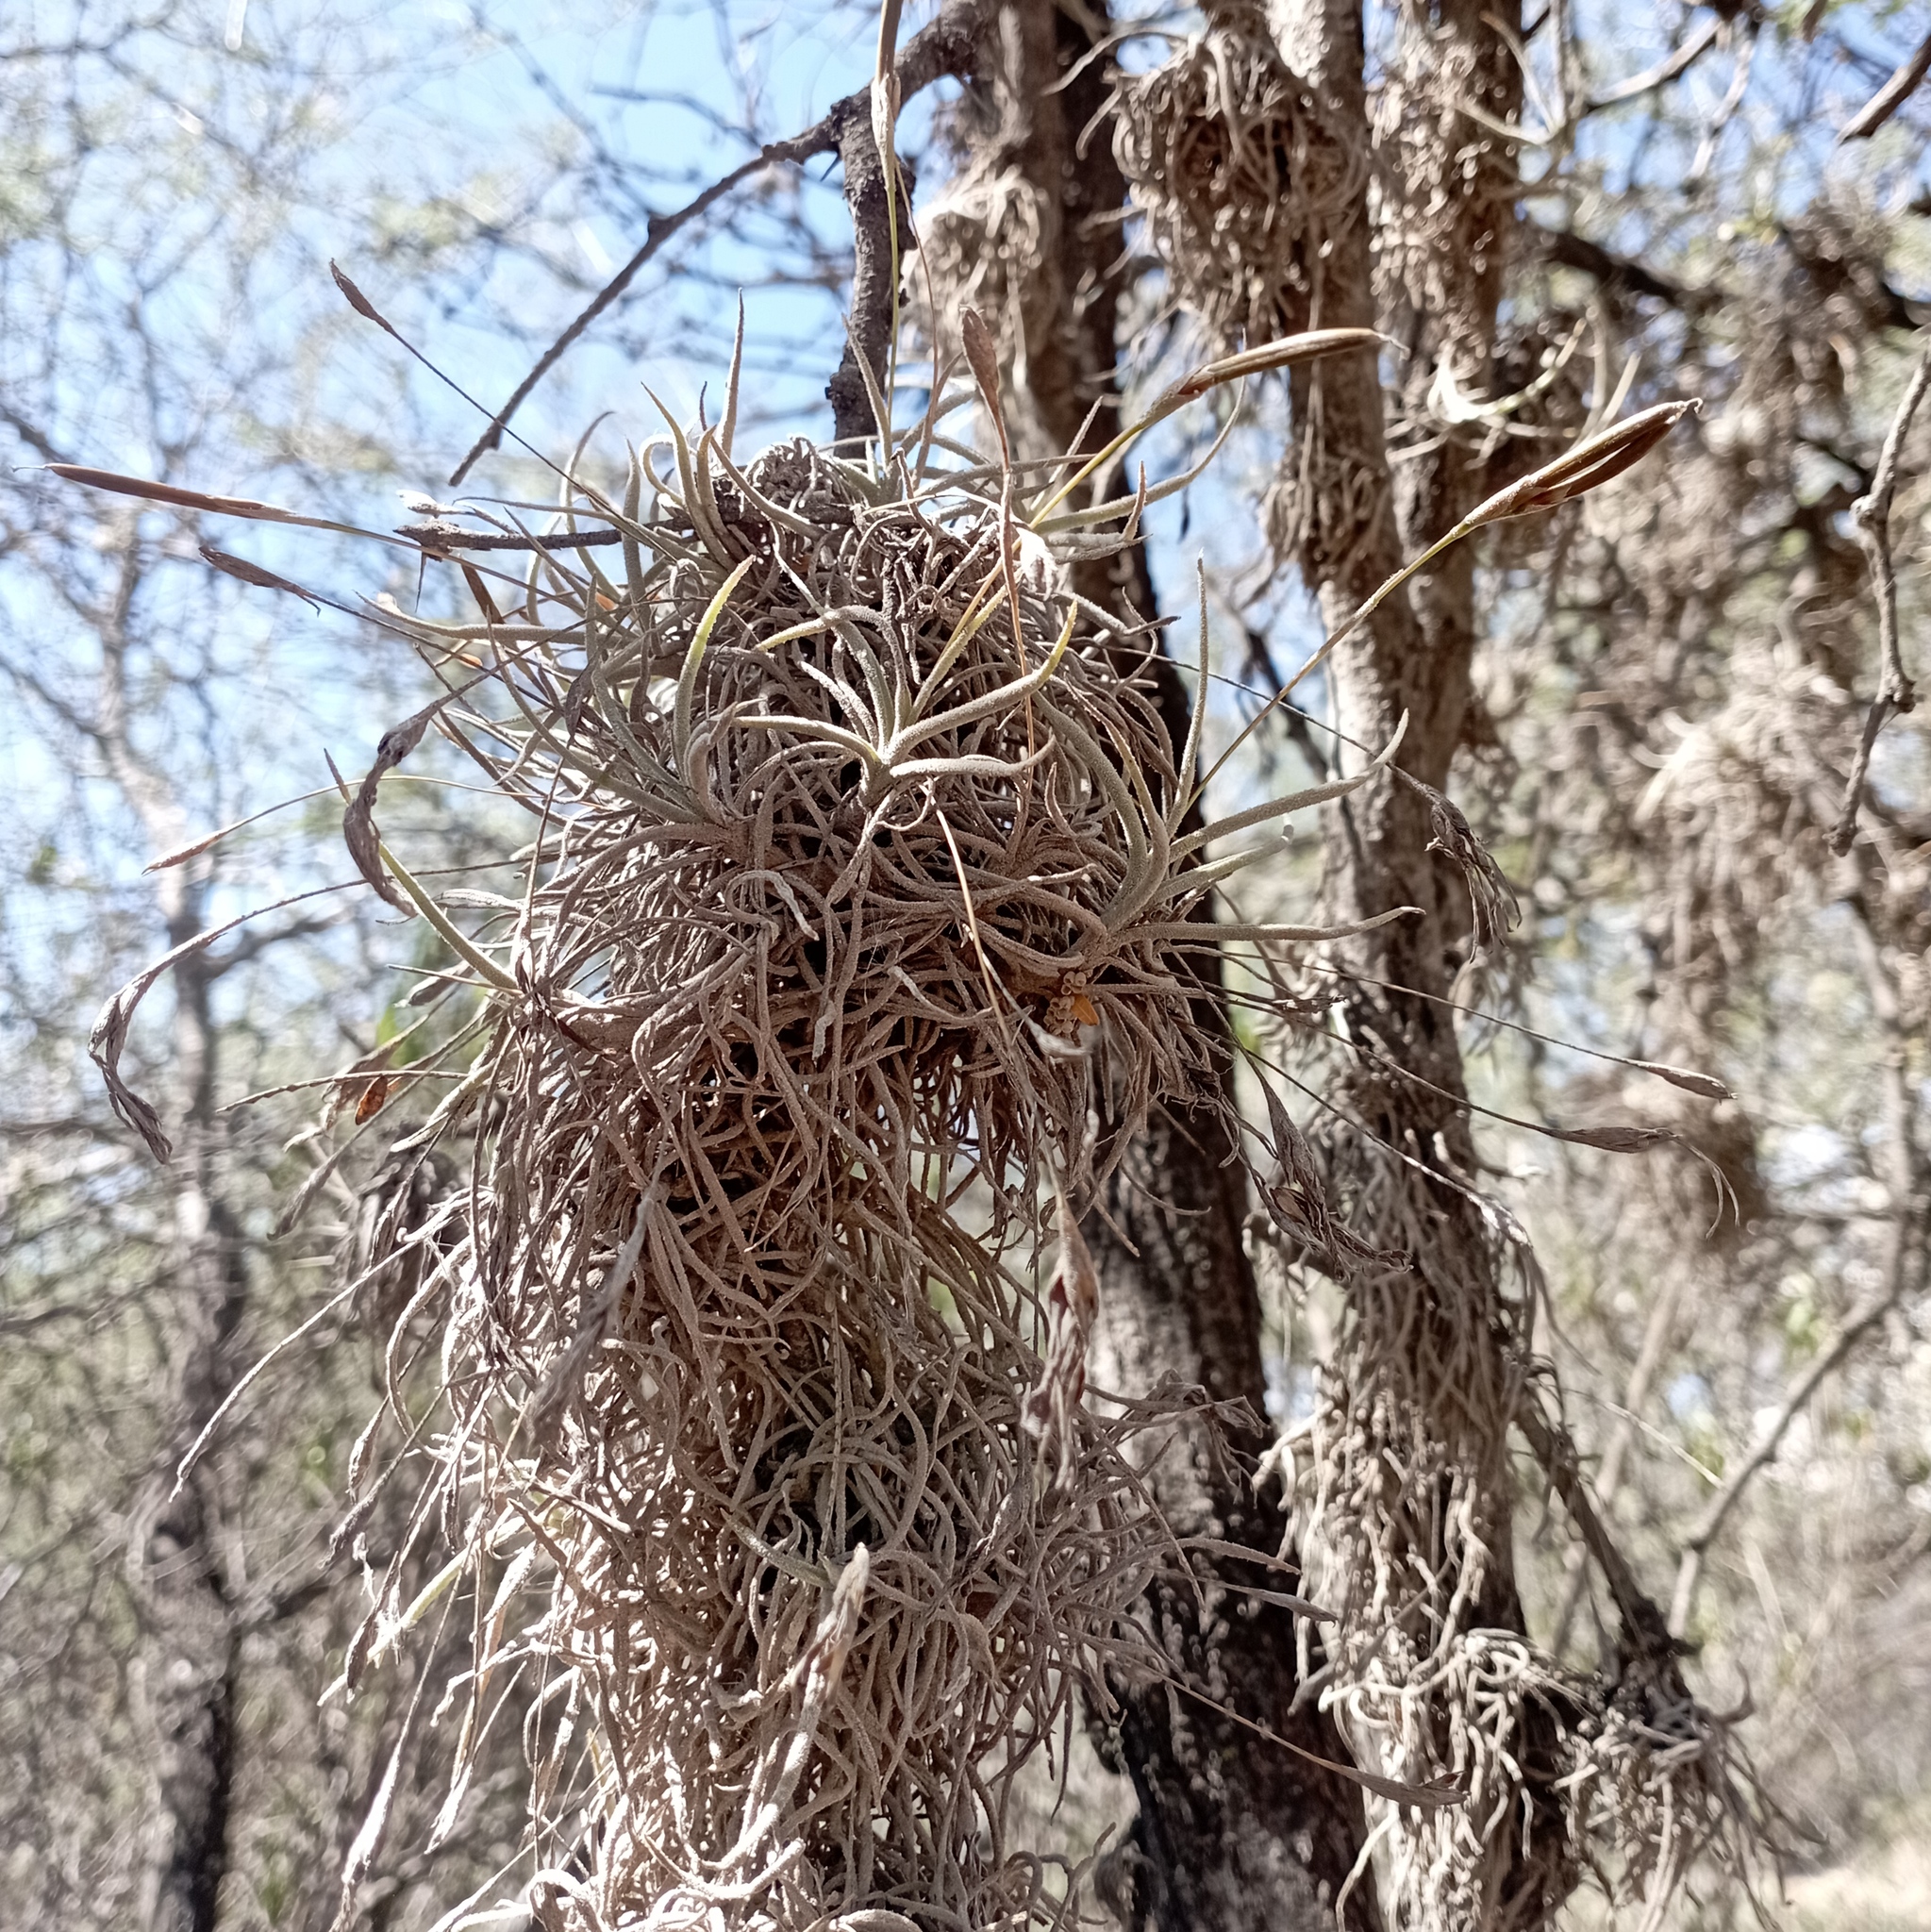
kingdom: Plantae
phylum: Tracheophyta
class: Liliopsida
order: Poales
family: Bromeliaceae
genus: Tillandsia
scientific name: Tillandsia recurvata
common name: Small ballmoss
